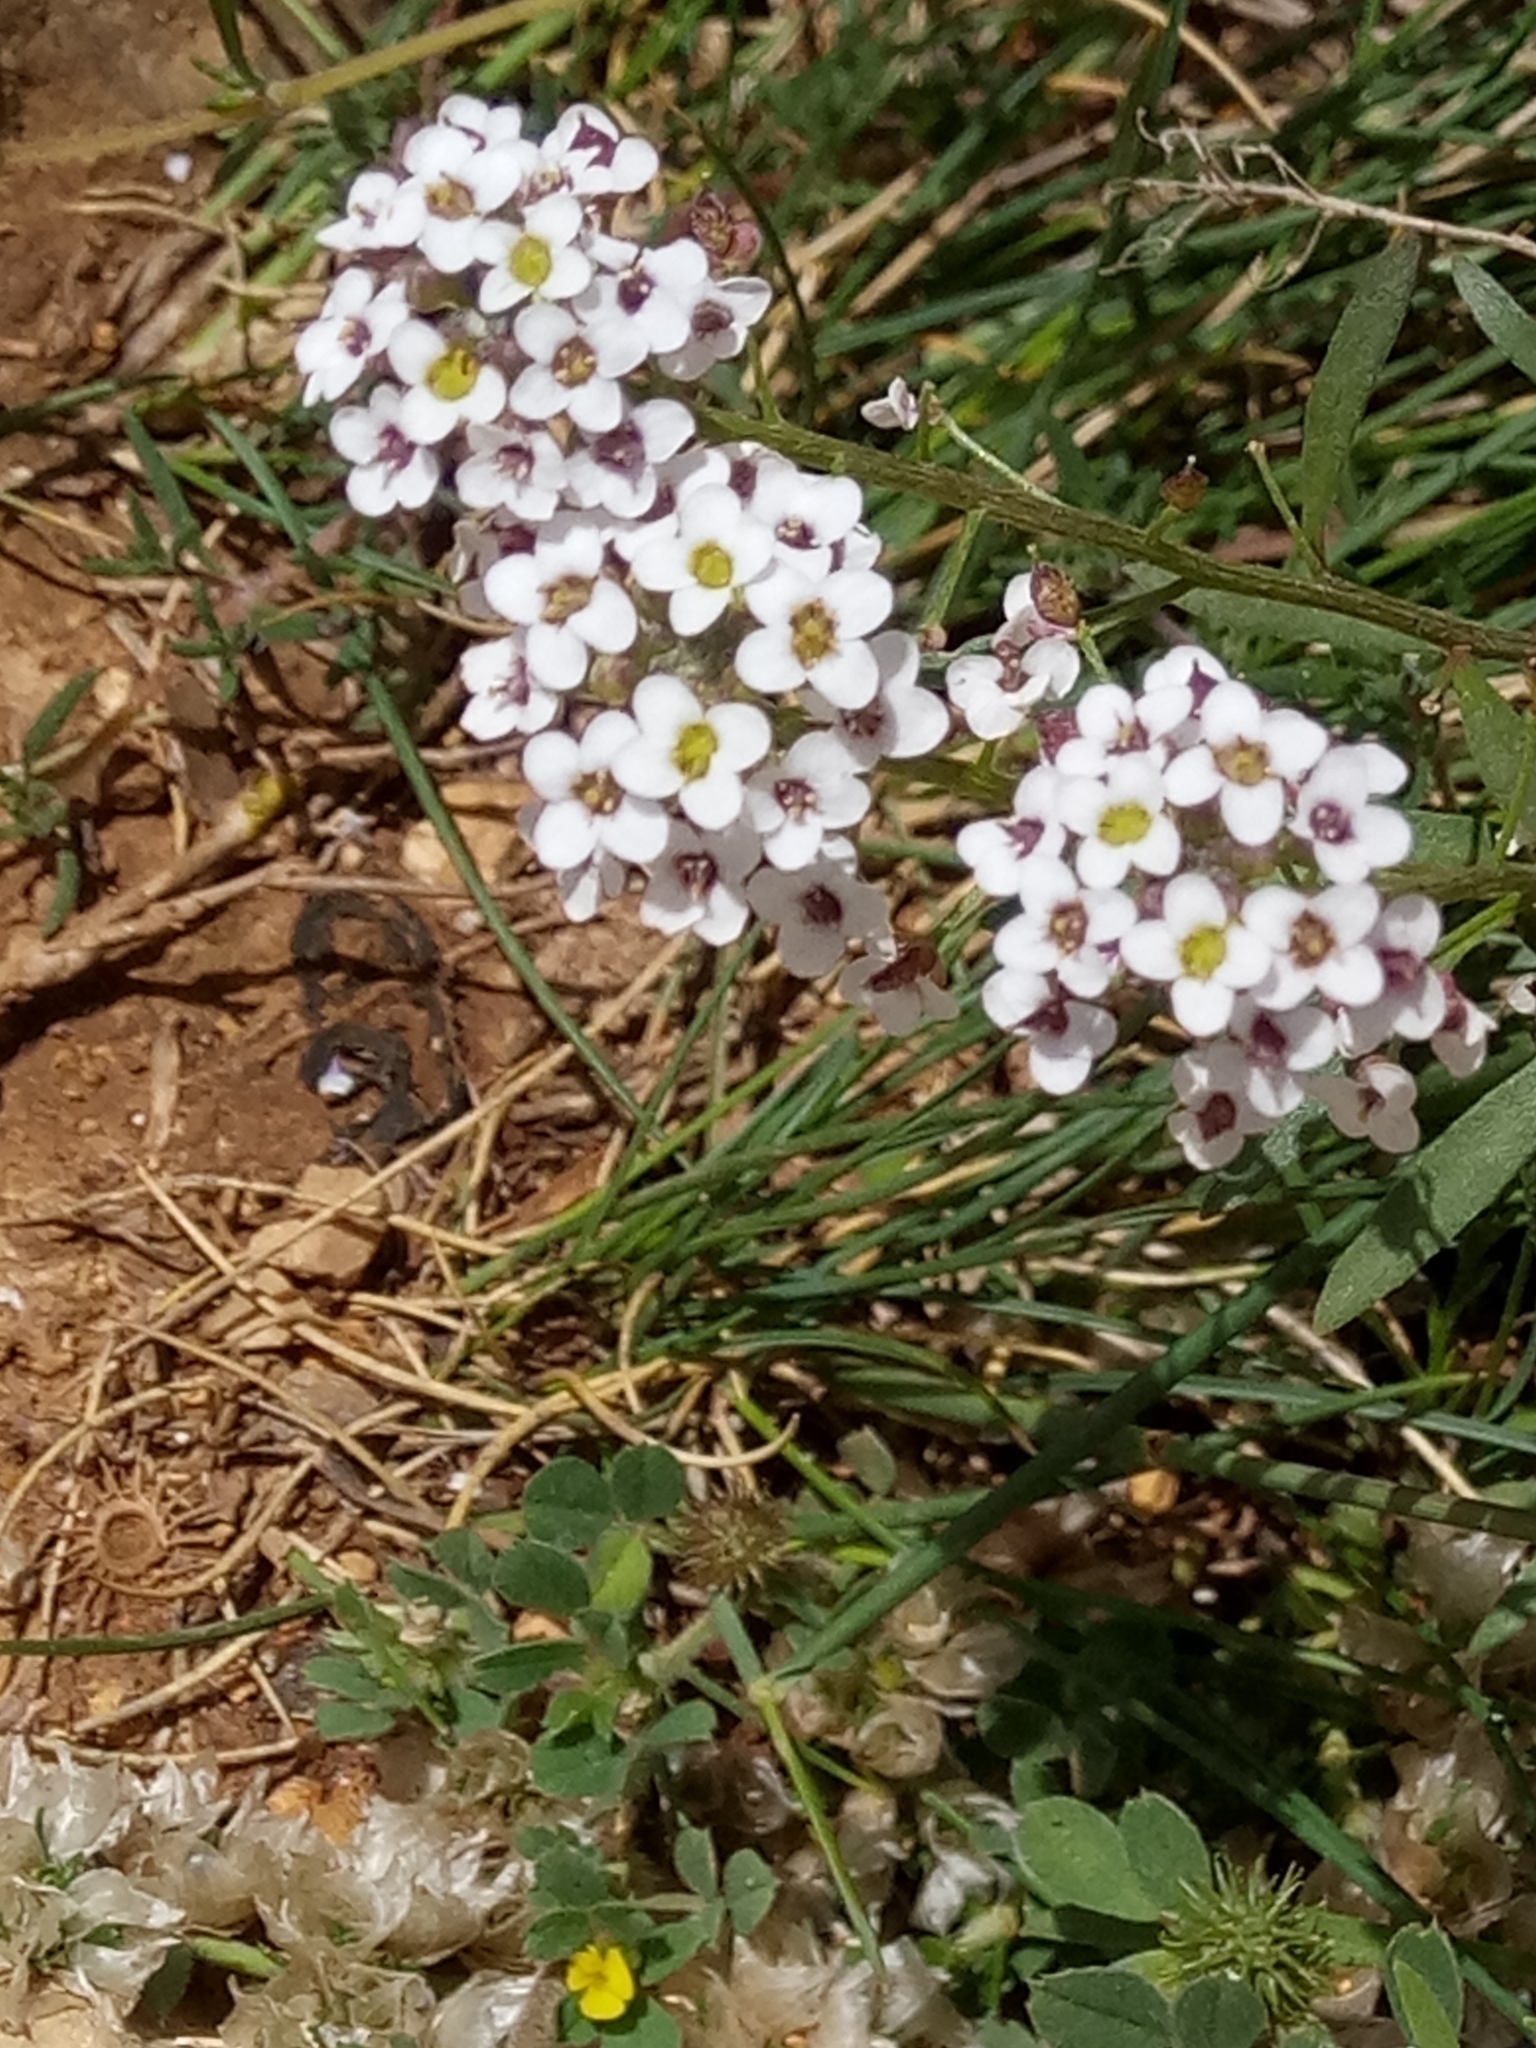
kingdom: Plantae
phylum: Tracheophyta
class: Magnoliopsida
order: Brassicales
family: Brassicaceae
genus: Lobularia
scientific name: Lobularia maritima
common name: Sweet alison
